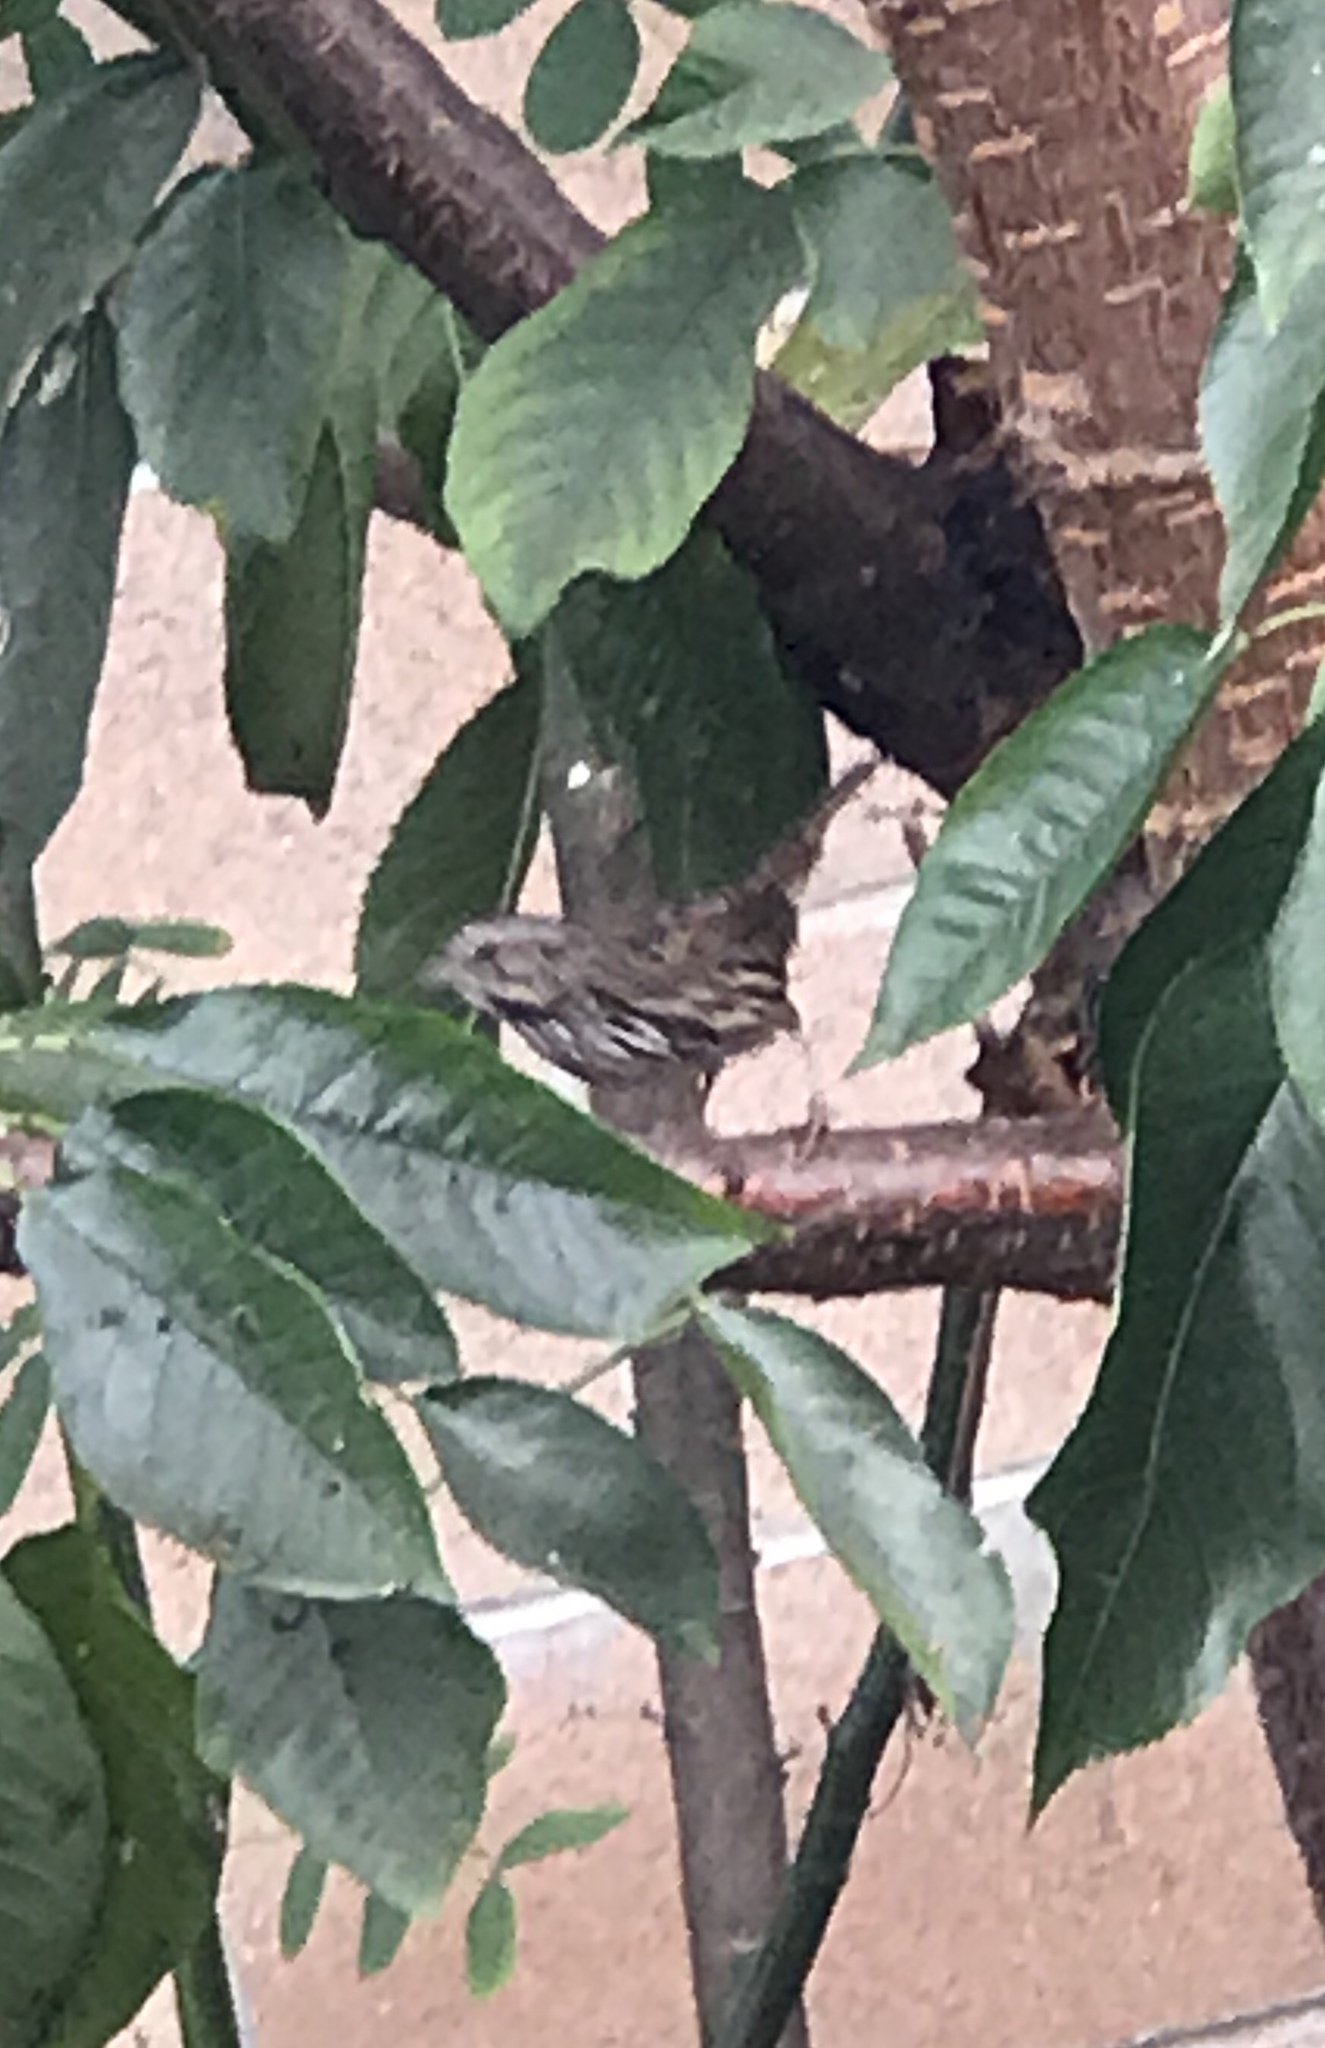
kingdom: Animalia
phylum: Chordata
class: Aves
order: Passeriformes
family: Passerellidae
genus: Melospiza
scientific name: Melospiza melodia
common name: Song sparrow
